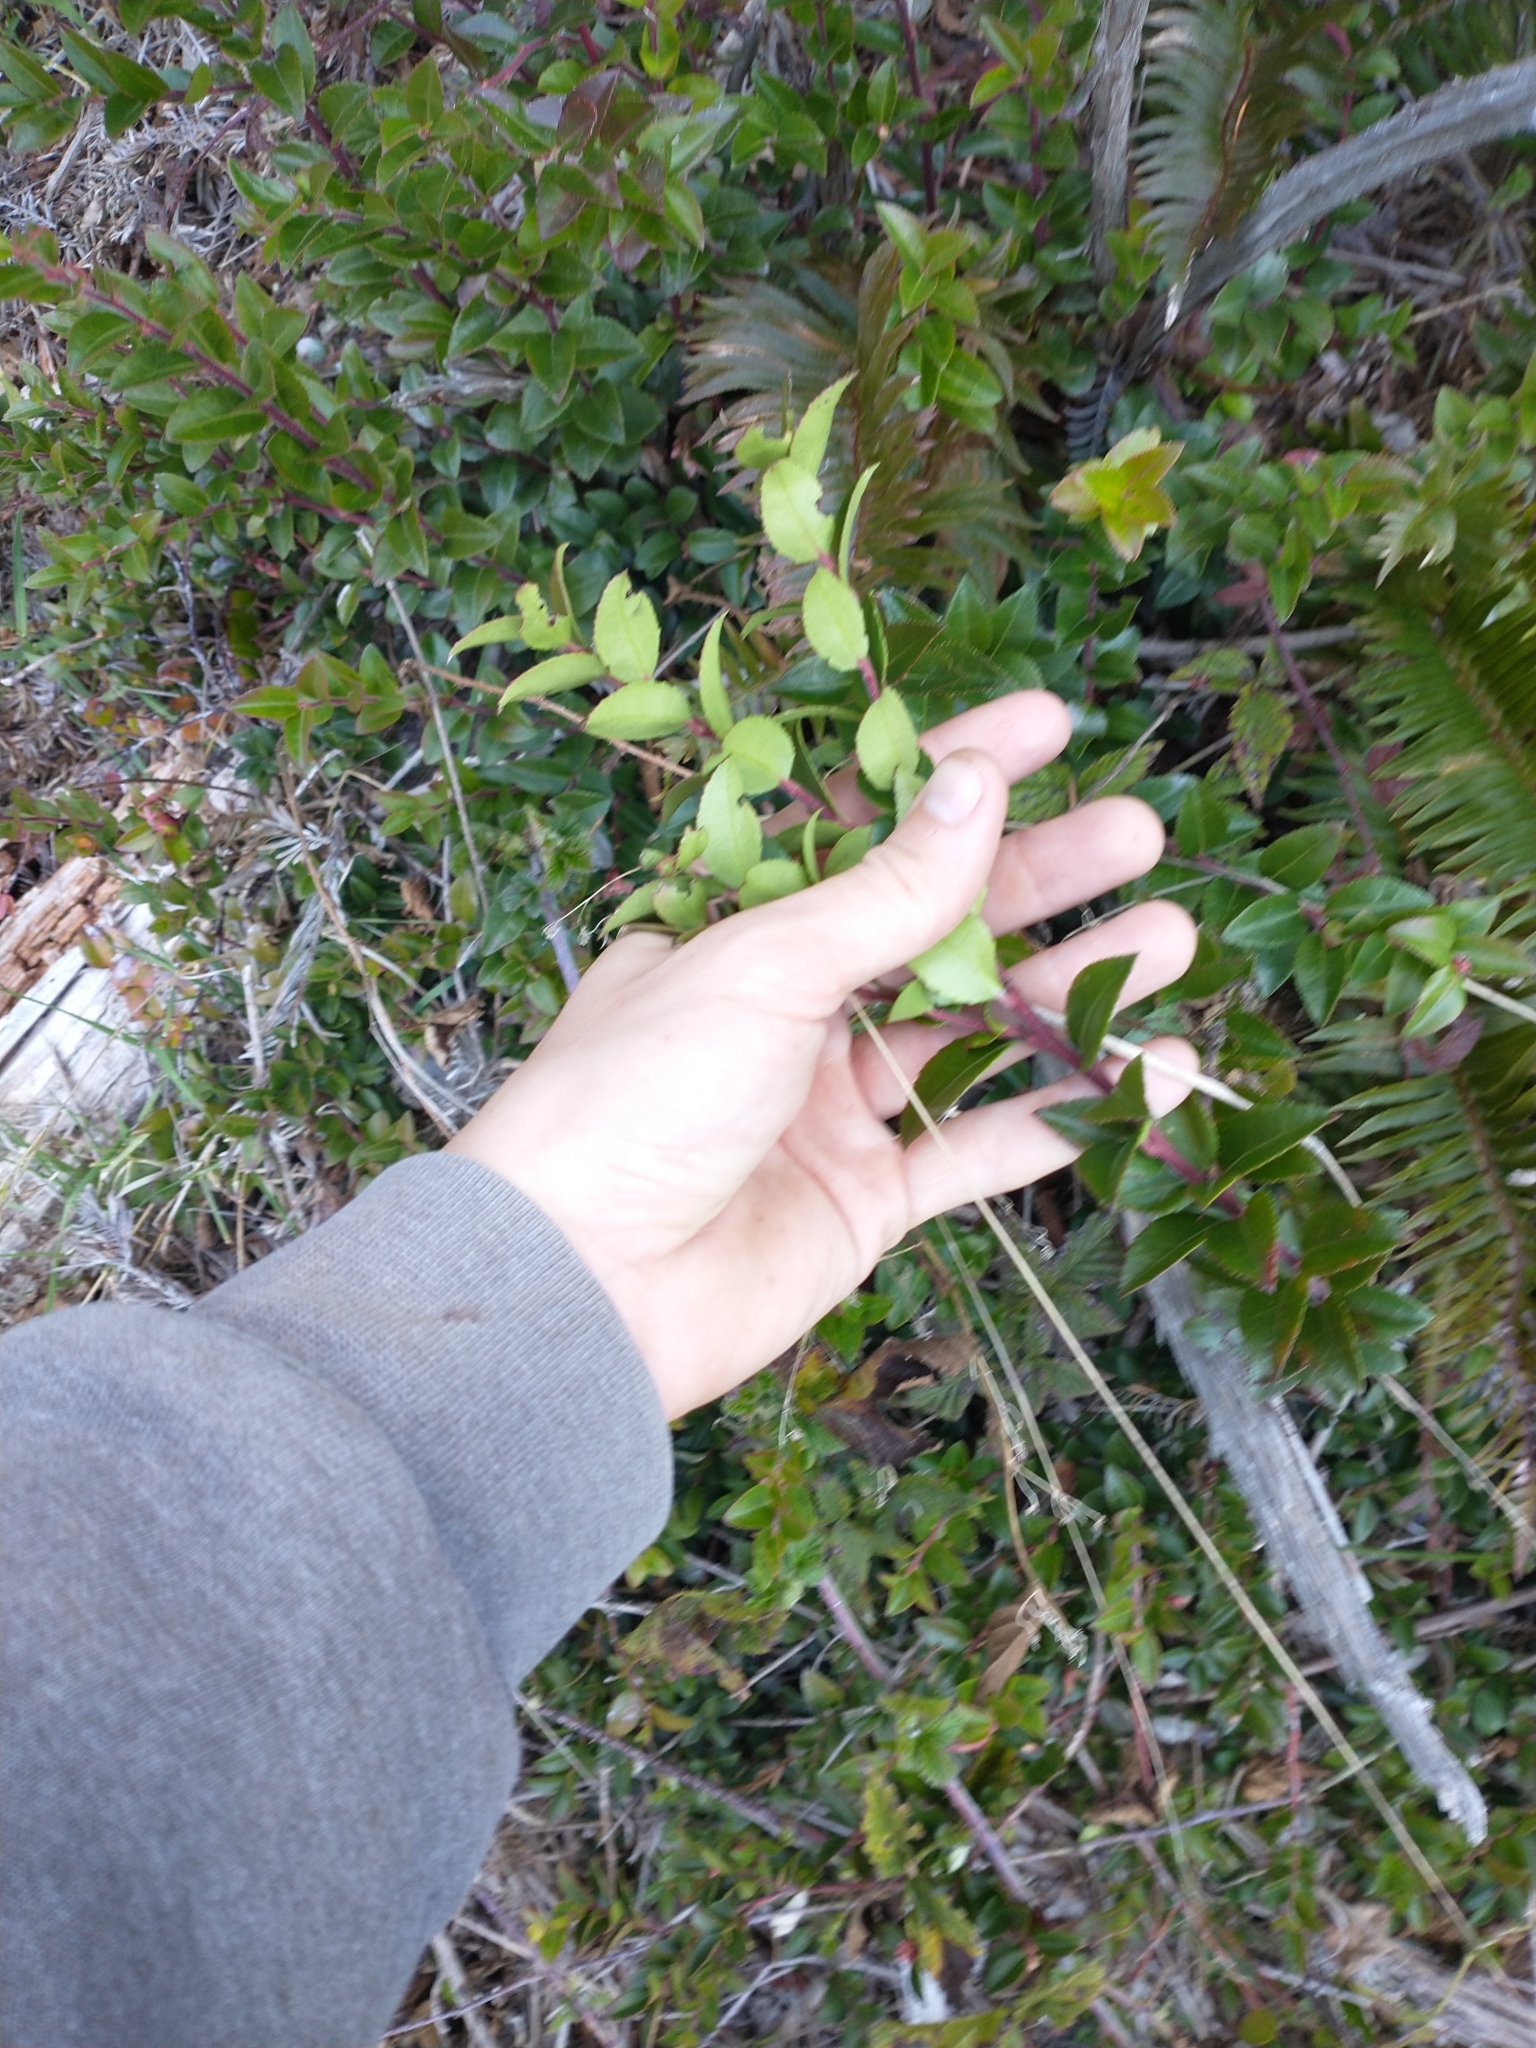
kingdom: Plantae
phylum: Tracheophyta
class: Magnoliopsida
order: Ericales
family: Ericaceae
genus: Vaccinium
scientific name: Vaccinium ovatum
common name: California-huckleberry
